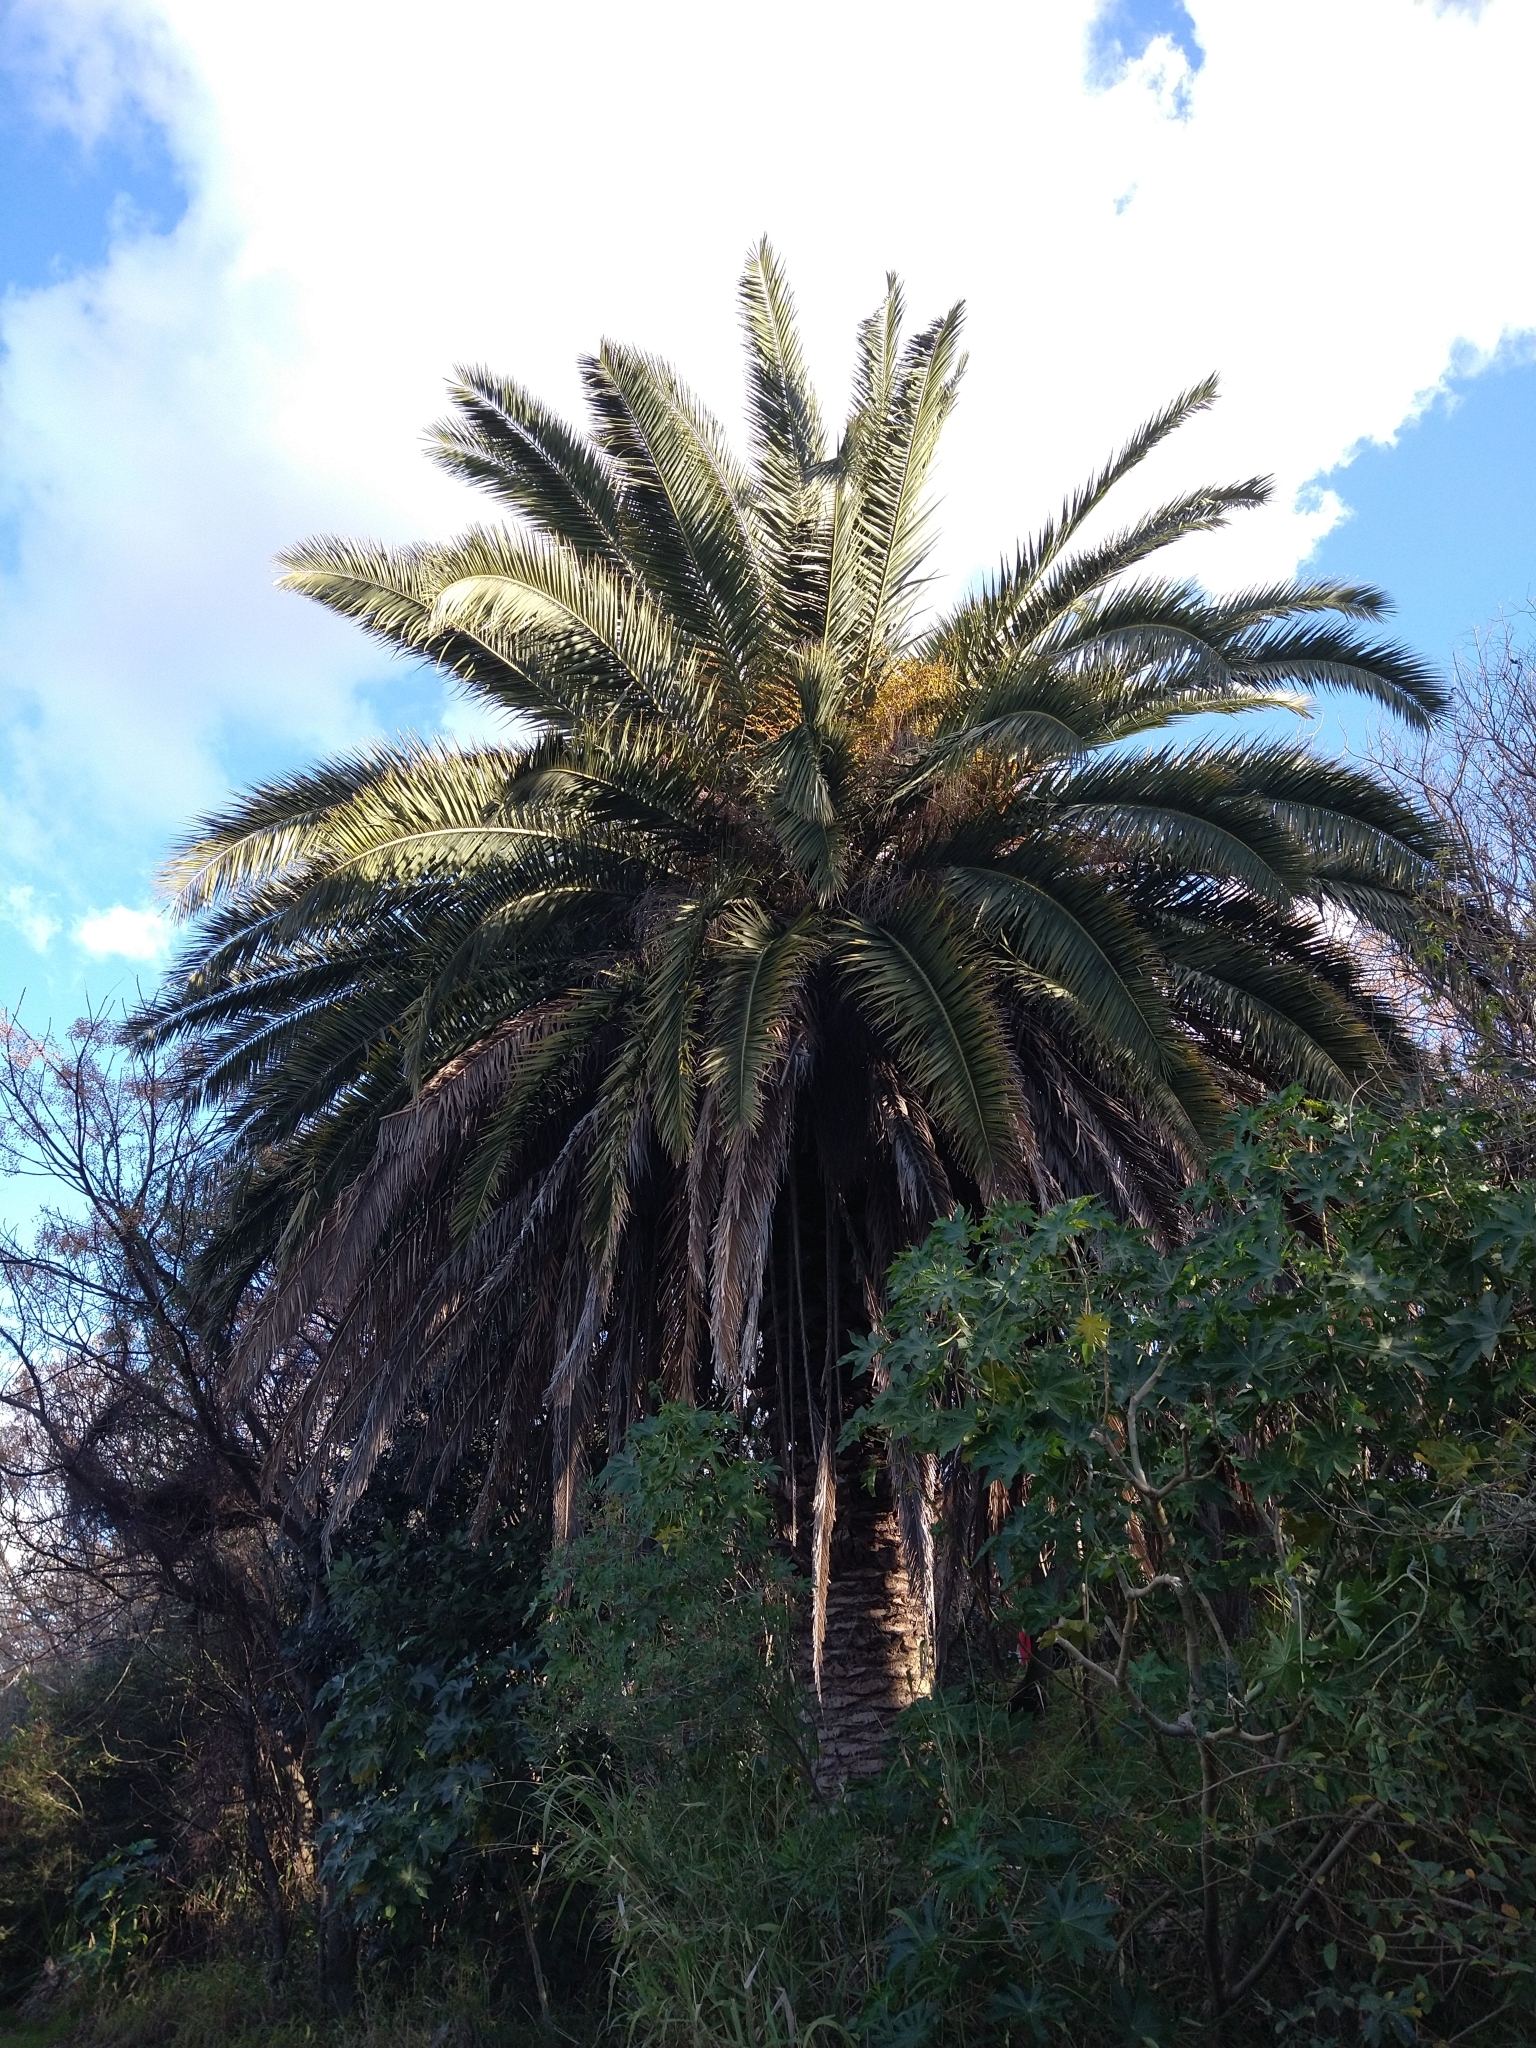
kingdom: Plantae
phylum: Tracheophyta
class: Liliopsida
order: Arecales
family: Arecaceae
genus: Phoenix
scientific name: Phoenix canariensis
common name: Canary island date palm
